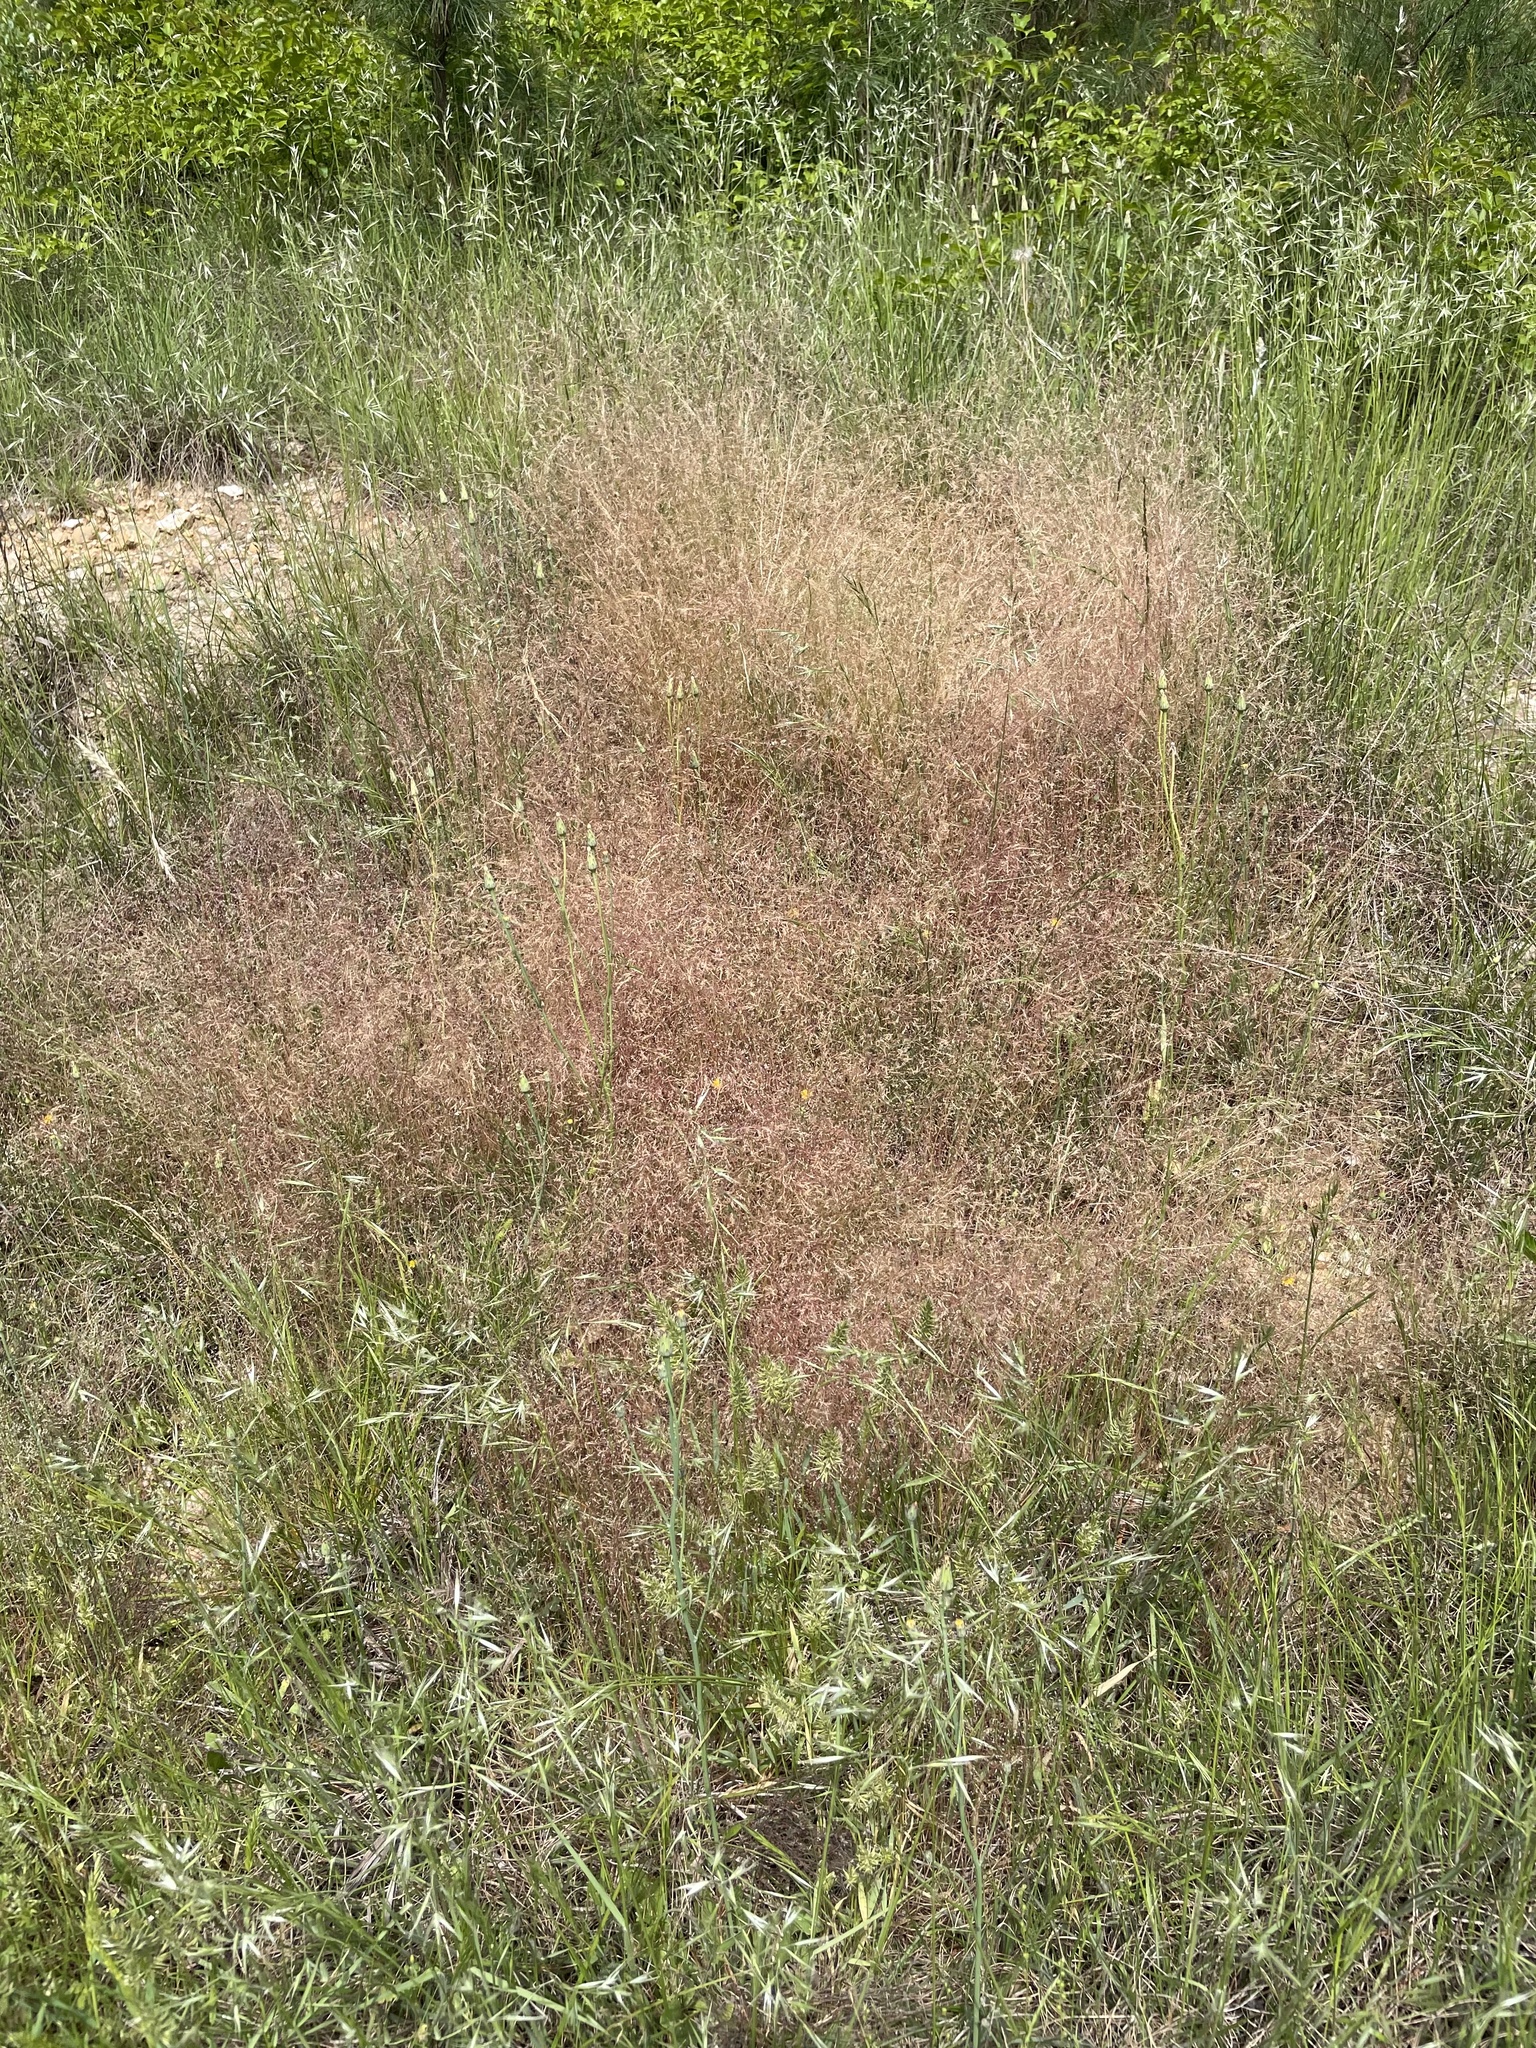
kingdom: Plantae
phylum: Tracheophyta
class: Liliopsida
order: Poales
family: Poaceae
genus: Eragrostis
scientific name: Eragrostis spectabilis
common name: Petticoat-climber
